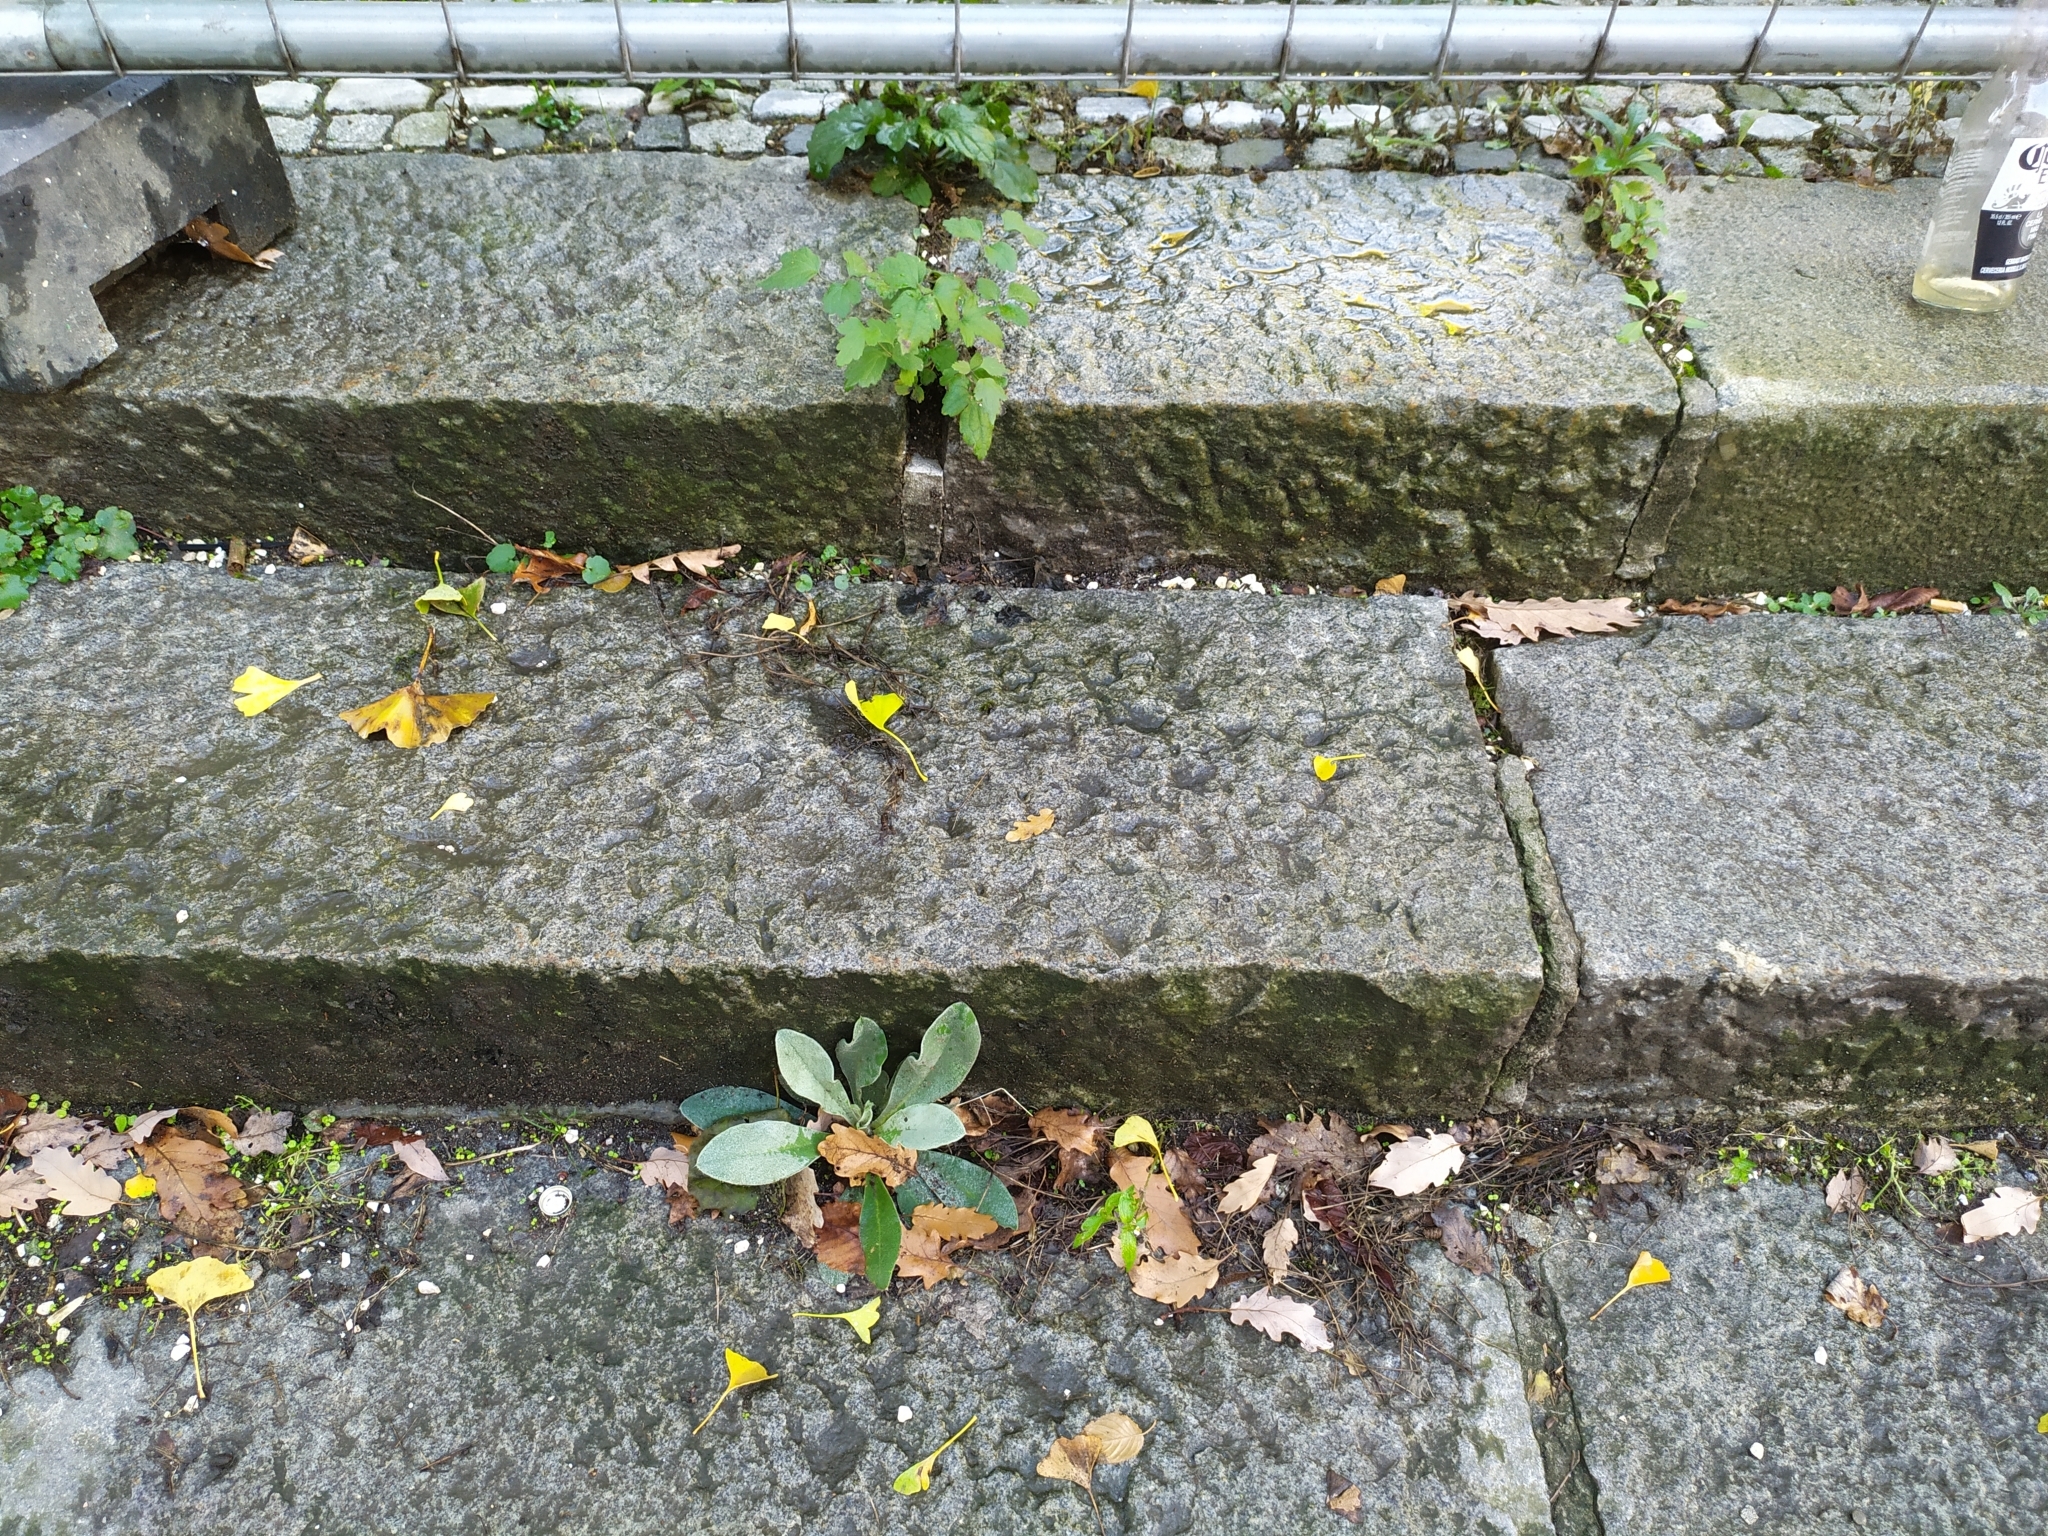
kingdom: Plantae
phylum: Tracheophyta
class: Magnoliopsida
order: Caryophyllales
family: Caryophyllaceae
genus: Silene
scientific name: Silene coronaria
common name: Rose campion
